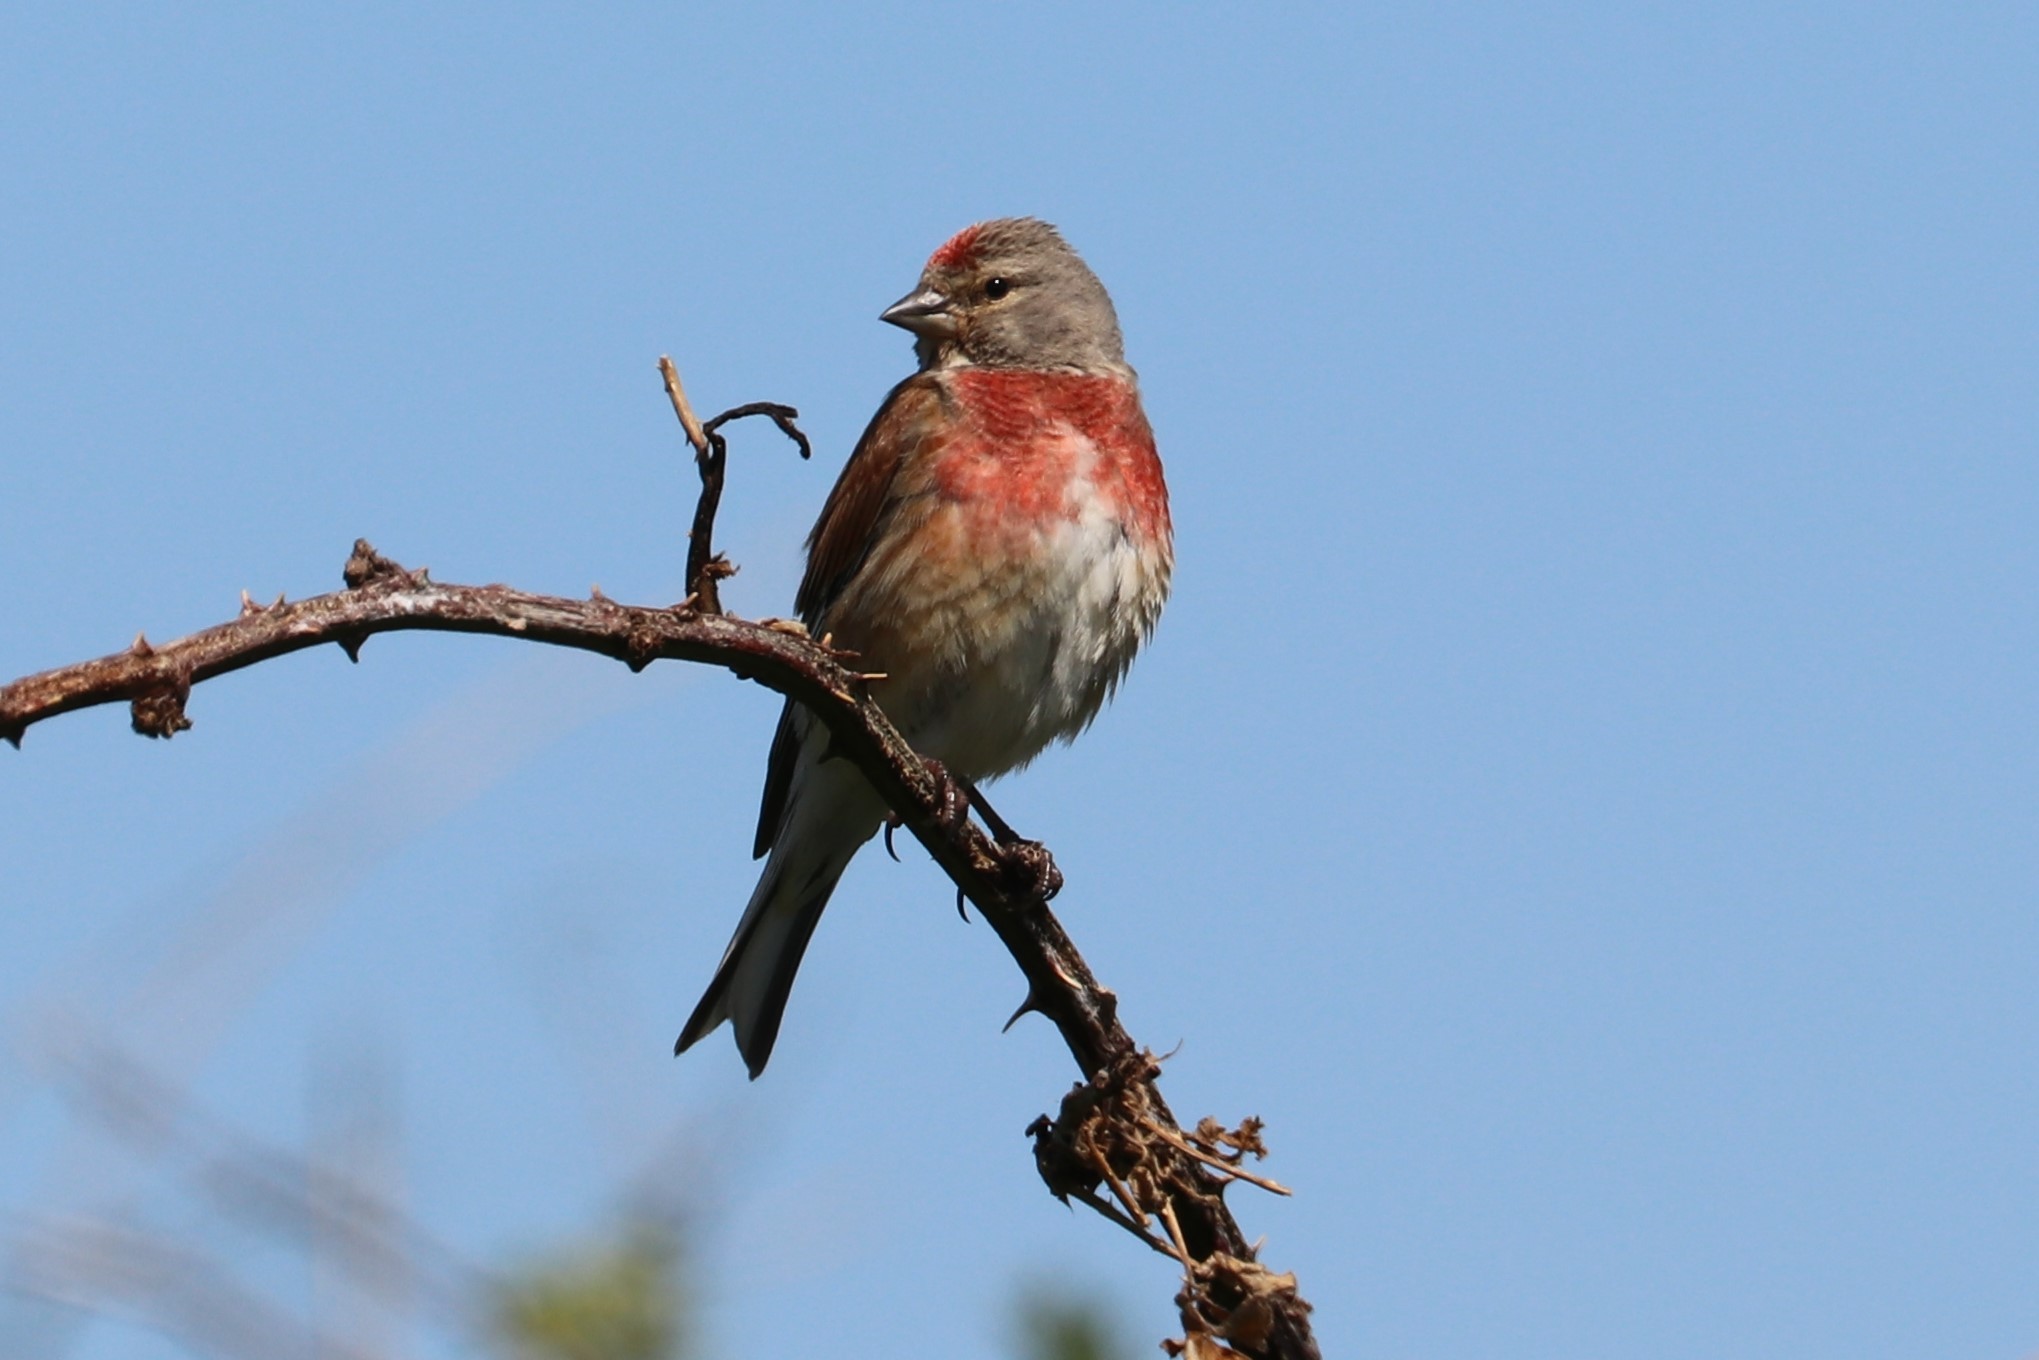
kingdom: Animalia
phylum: Chordata
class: Aves
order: Passeriformes
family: Fringillidae
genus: Linaria
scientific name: Linaria cannabina
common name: Common linnet
